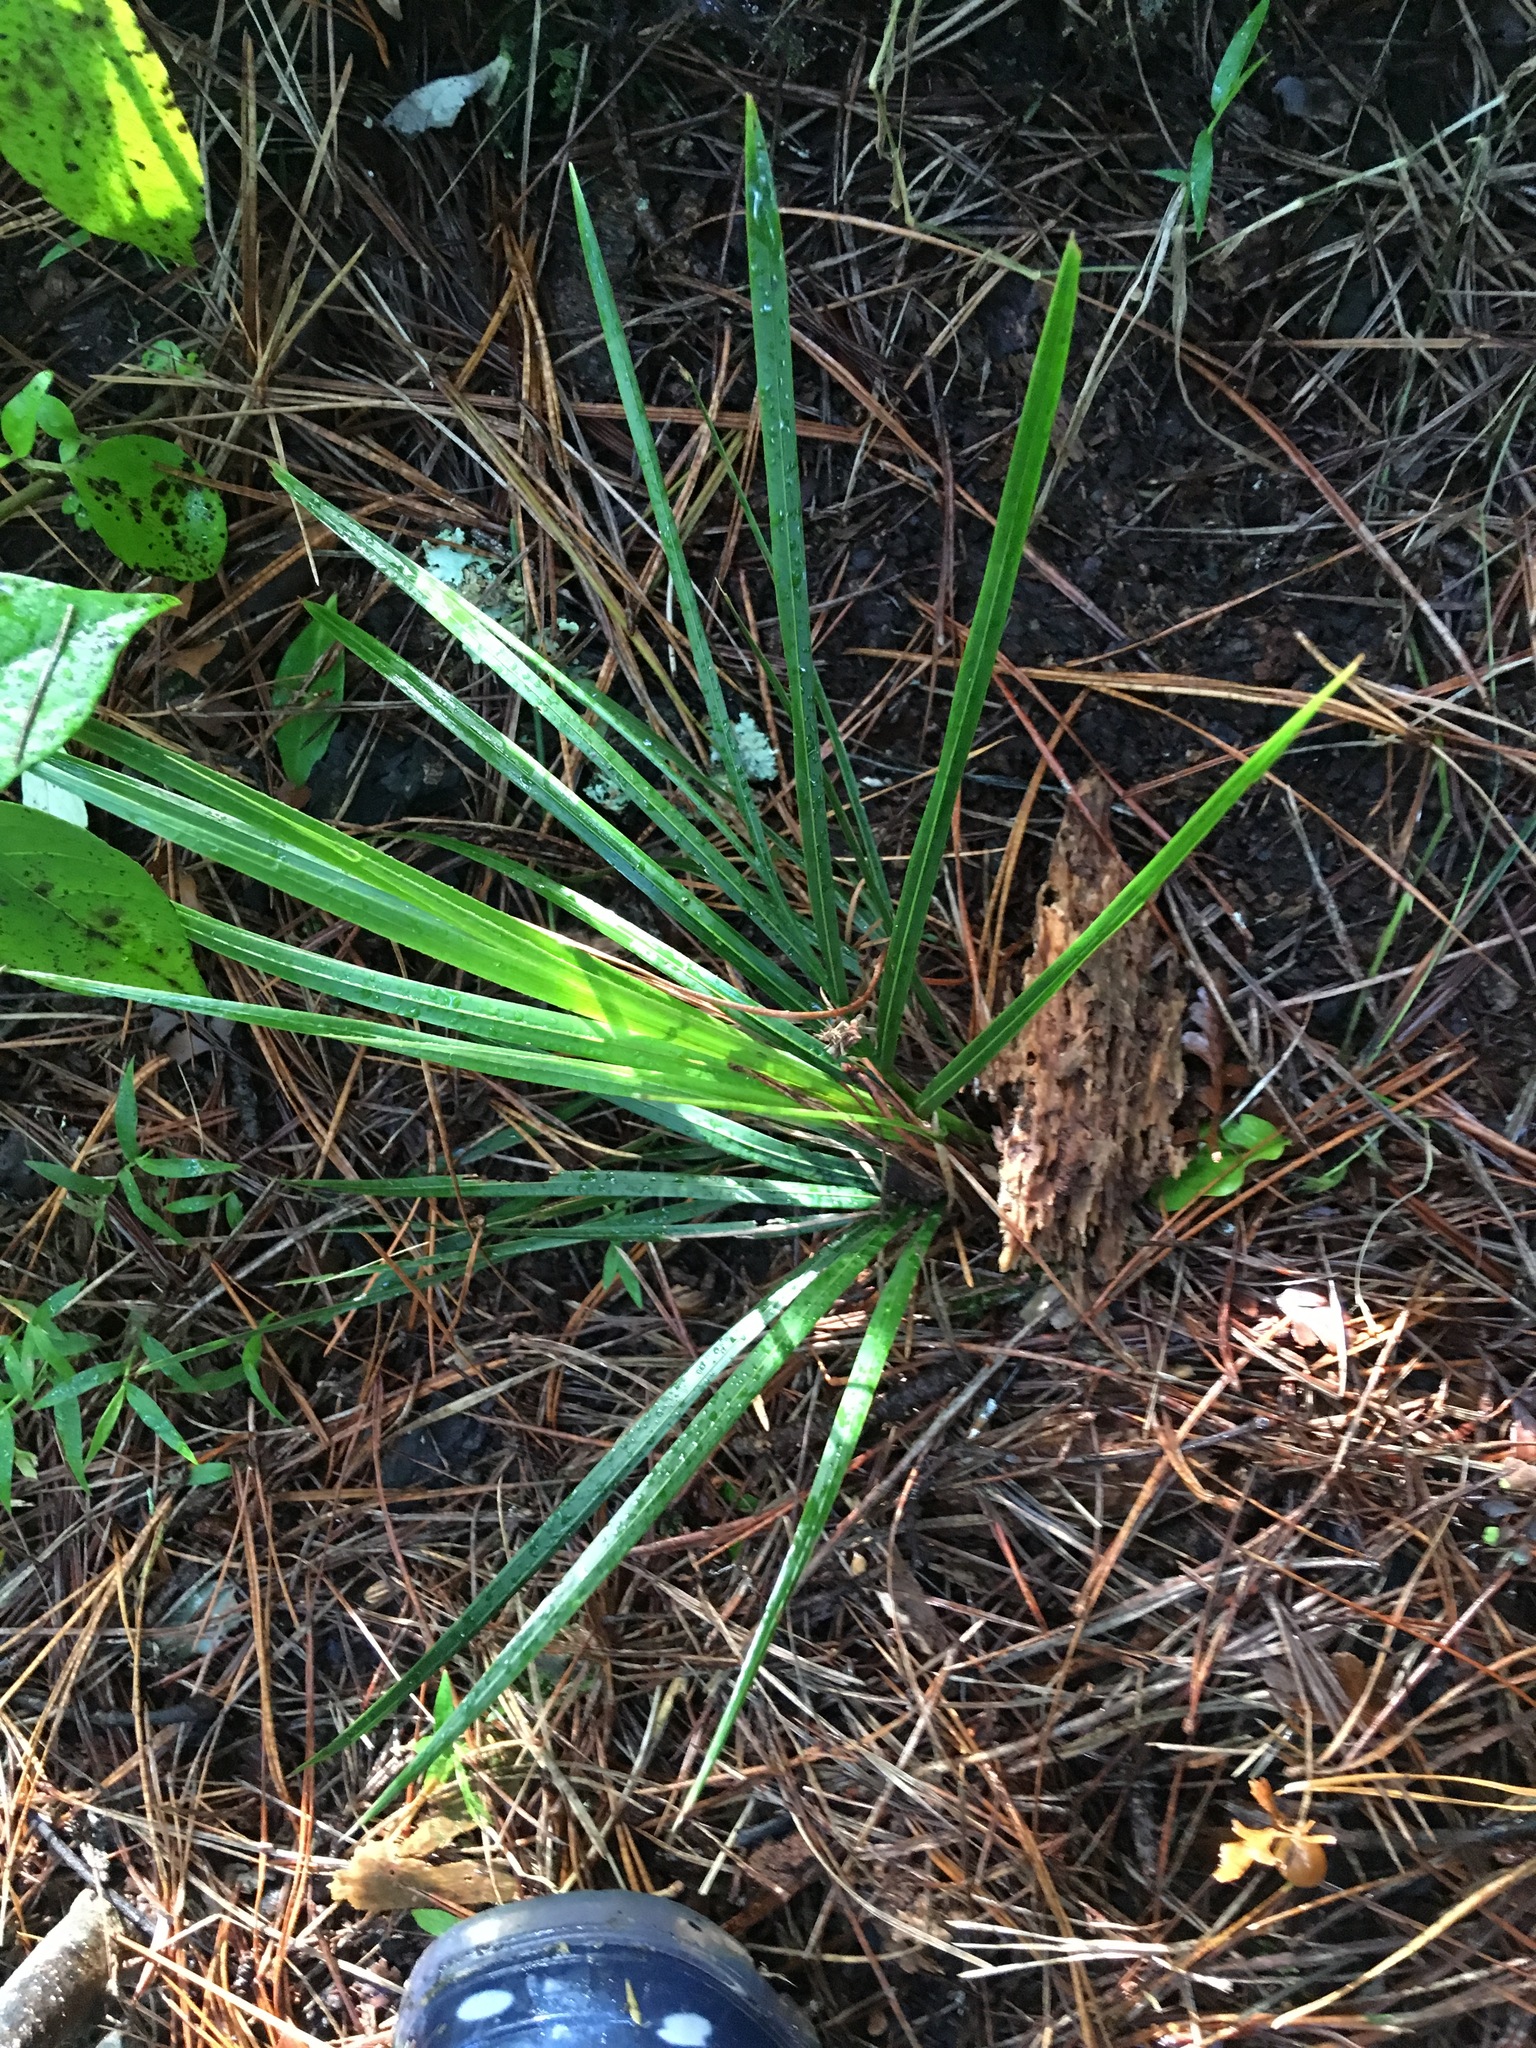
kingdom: Plantae
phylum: Tracheophyta
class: Liliopsida
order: Arecales
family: Arecaceae
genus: Rhopalostylis
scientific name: Rhopalostylis sapida
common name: Feather-duster palm
